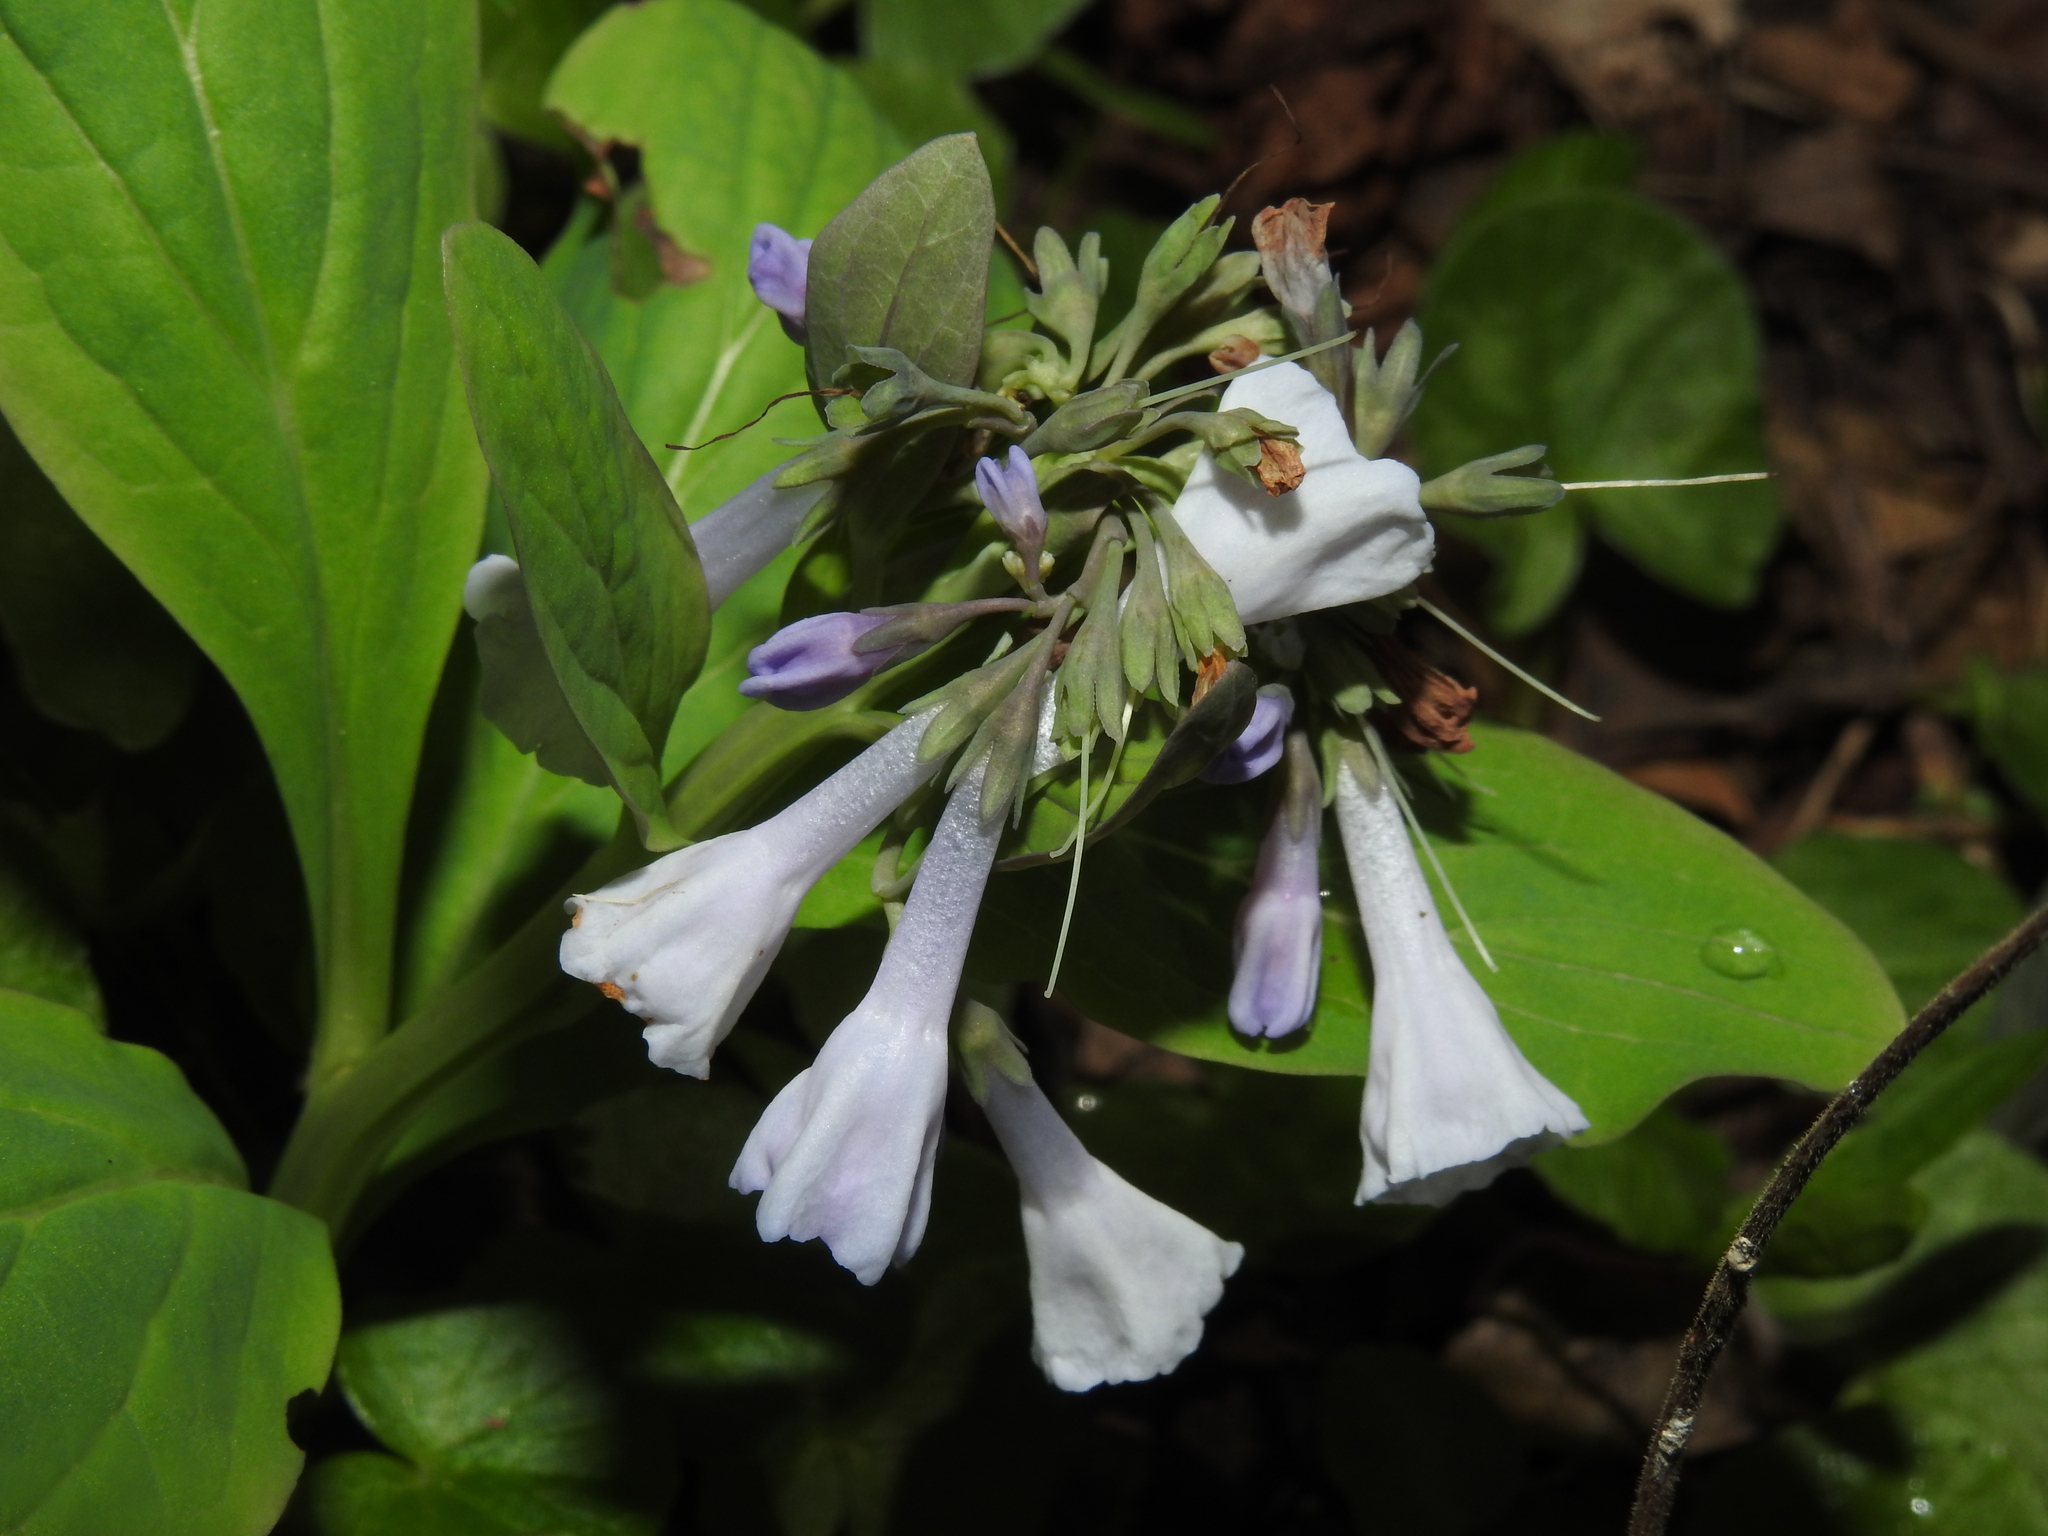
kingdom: Plantae
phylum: Tracheophyta
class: Magnoliopsida
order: Boraginales
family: Boraginaceae
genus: Mertensia
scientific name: Mertensia virginica
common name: Virginia bluebells
